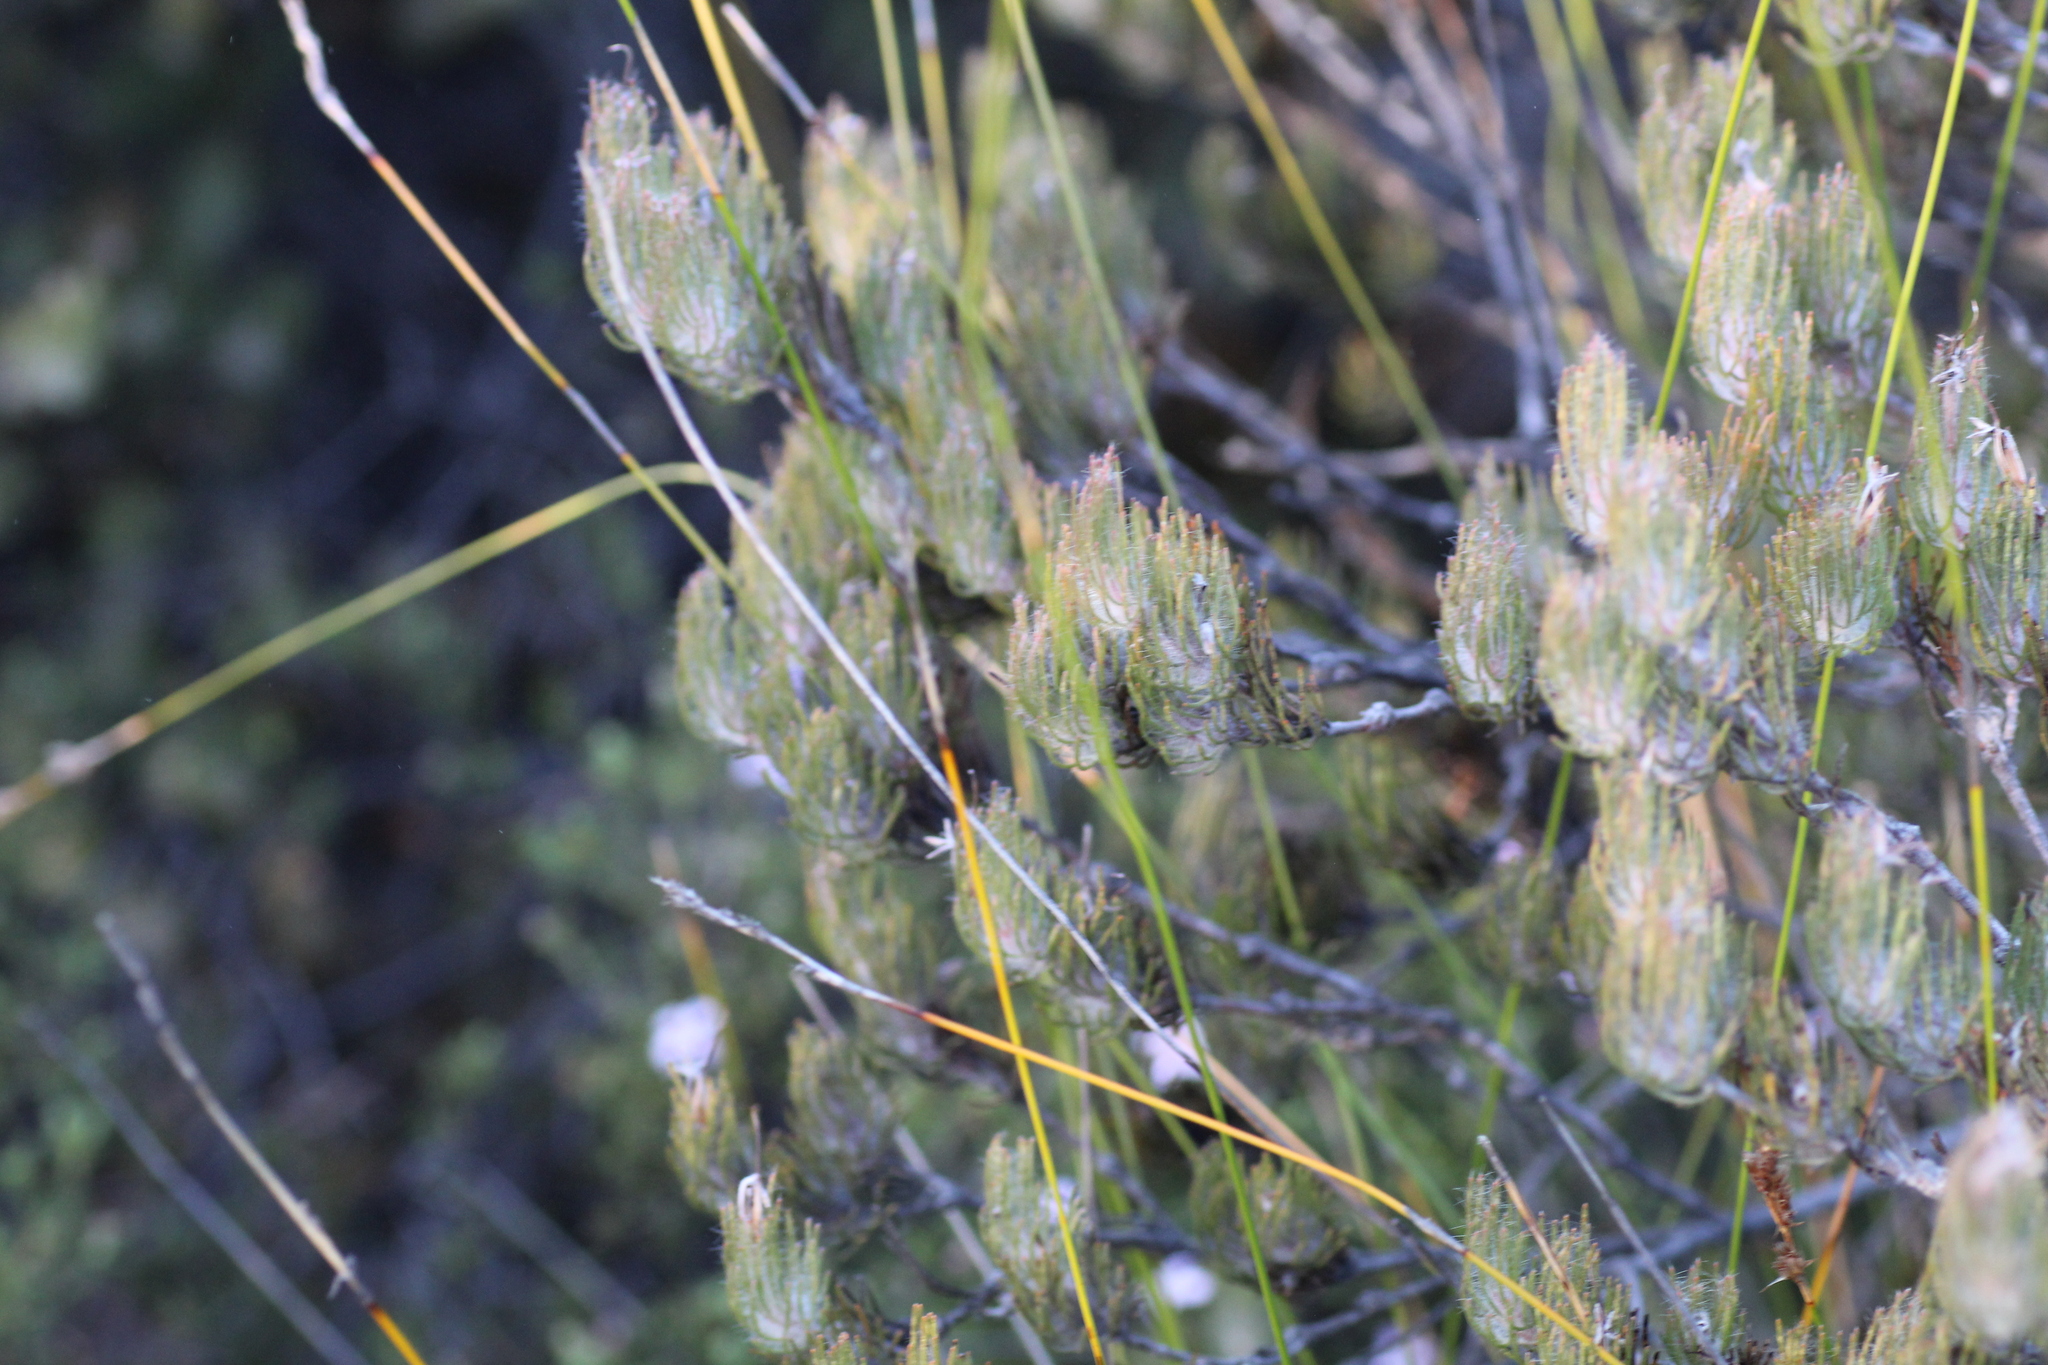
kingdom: Plantae
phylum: Tracheophyta
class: Magnoliopsida
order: Proteales
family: Proteaceae
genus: Adenanthos
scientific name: Adenanthos cygnorum
